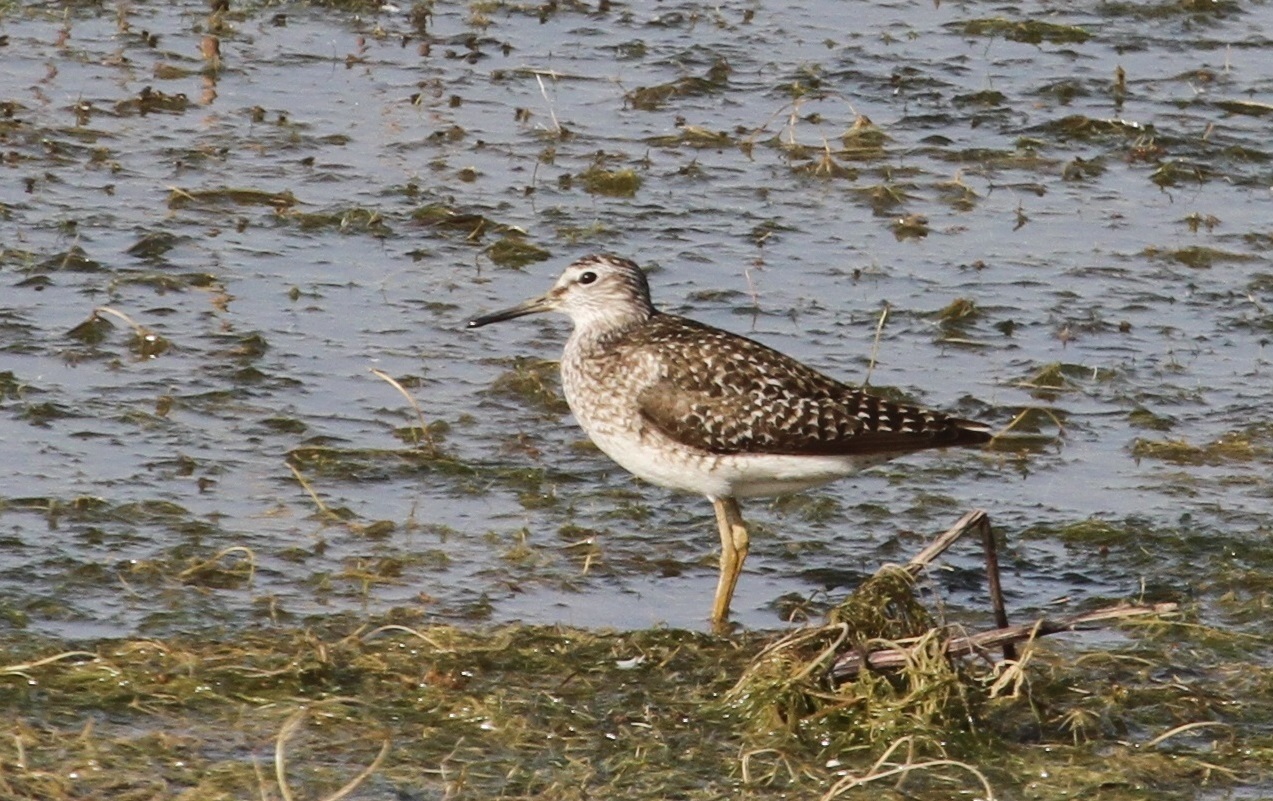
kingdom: Animalia
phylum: Chordata
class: Aves
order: Charadriiformes
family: Scolopacidae
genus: Tringa
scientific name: Tringa glareola
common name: Wood sandpiper
